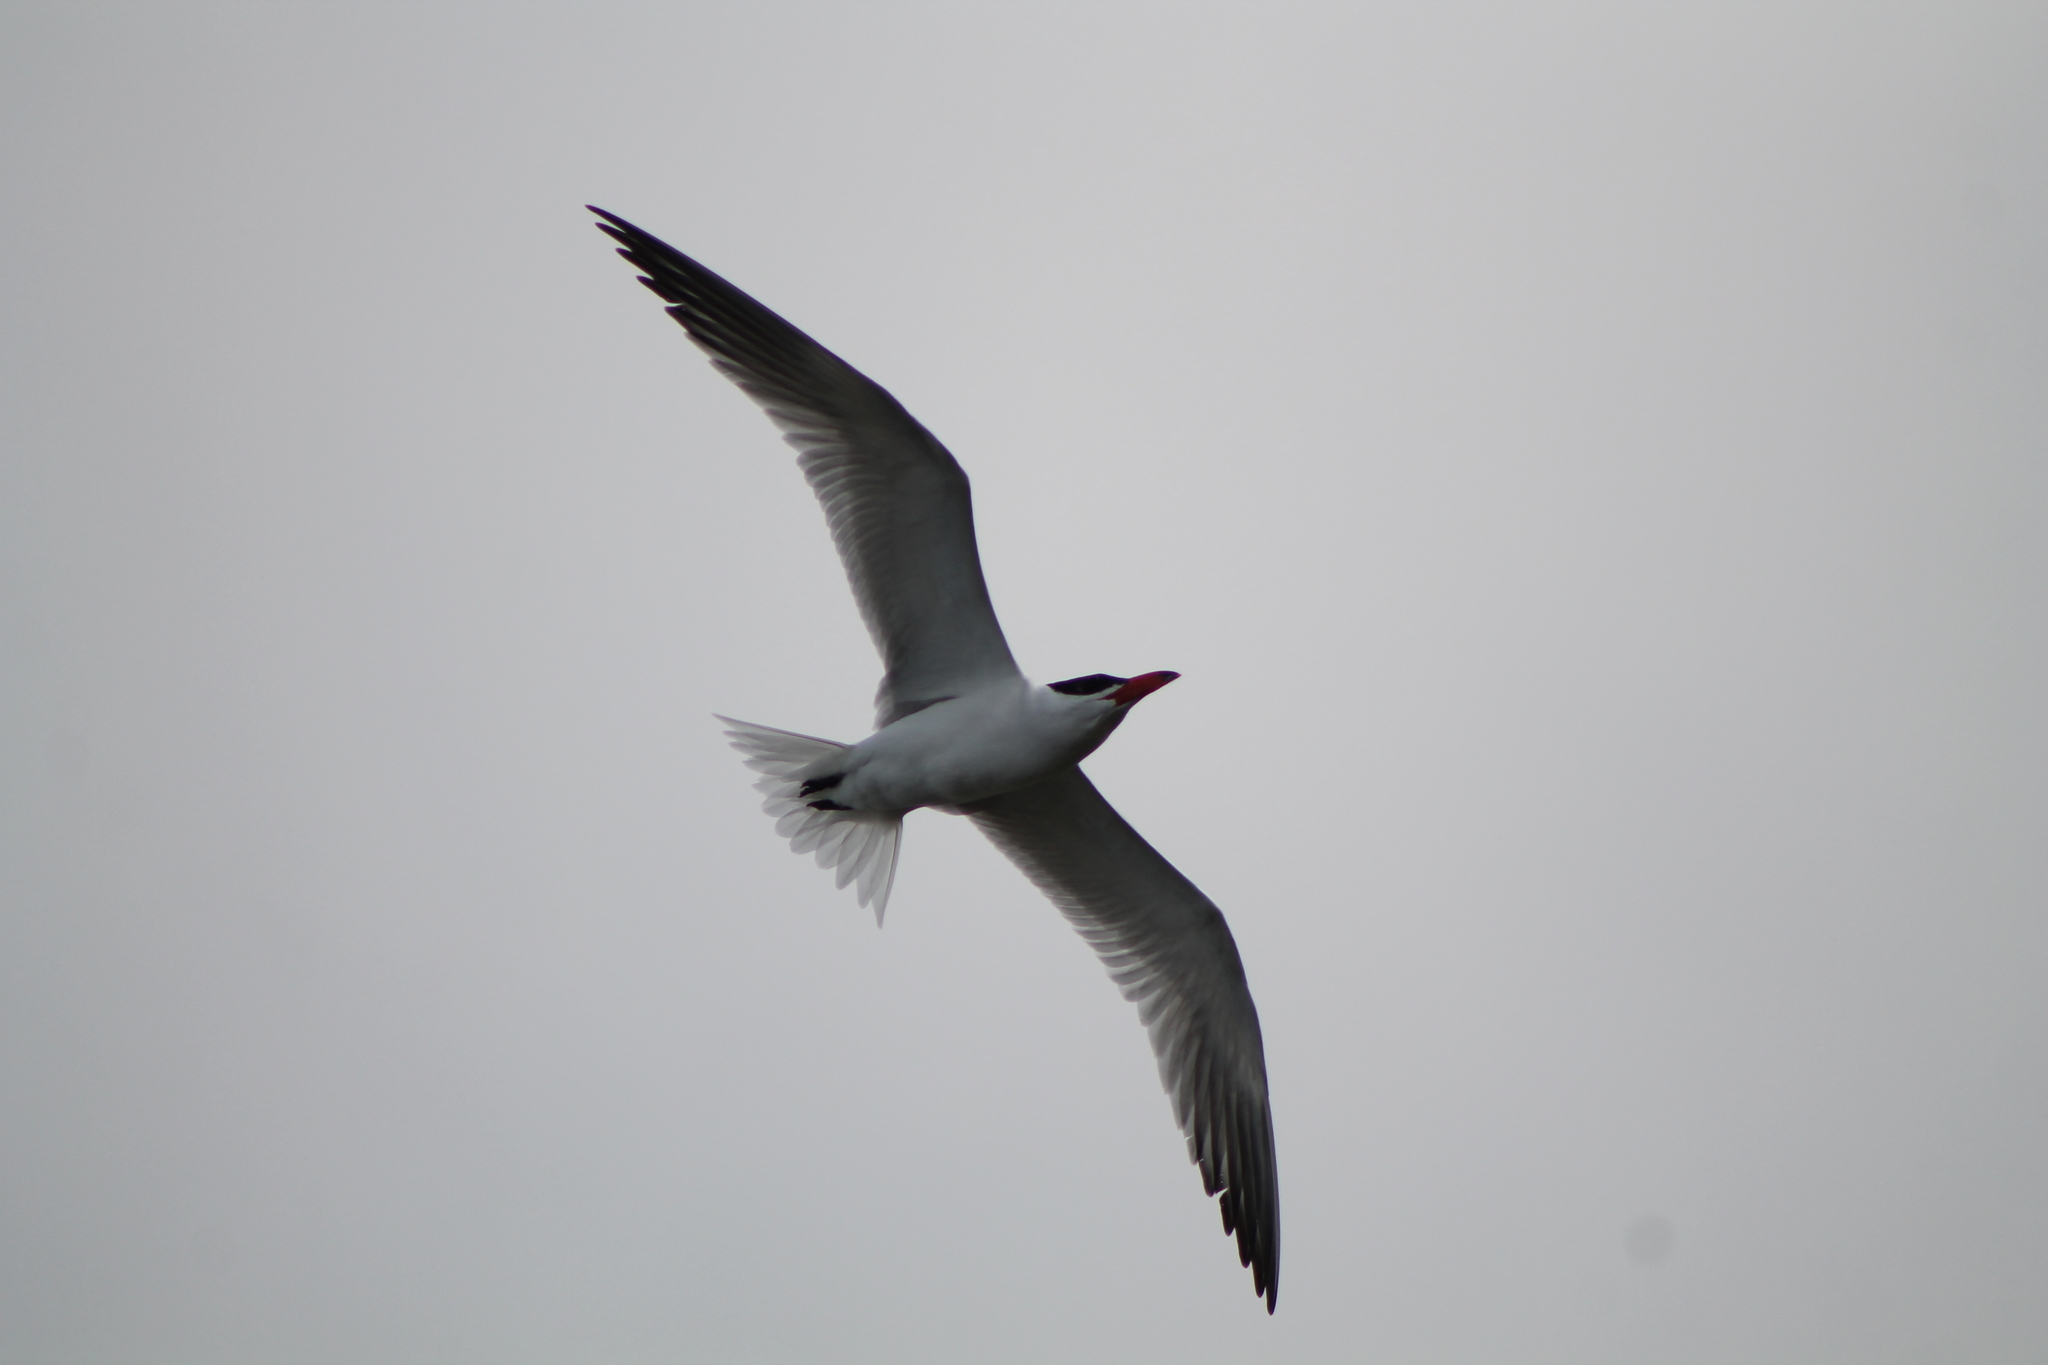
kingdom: Animalia
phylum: Chordata
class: Aves
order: Charadriiformes
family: Laridae
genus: Hydroprogne
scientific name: Hydroprogne caspia
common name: Caspian tern
